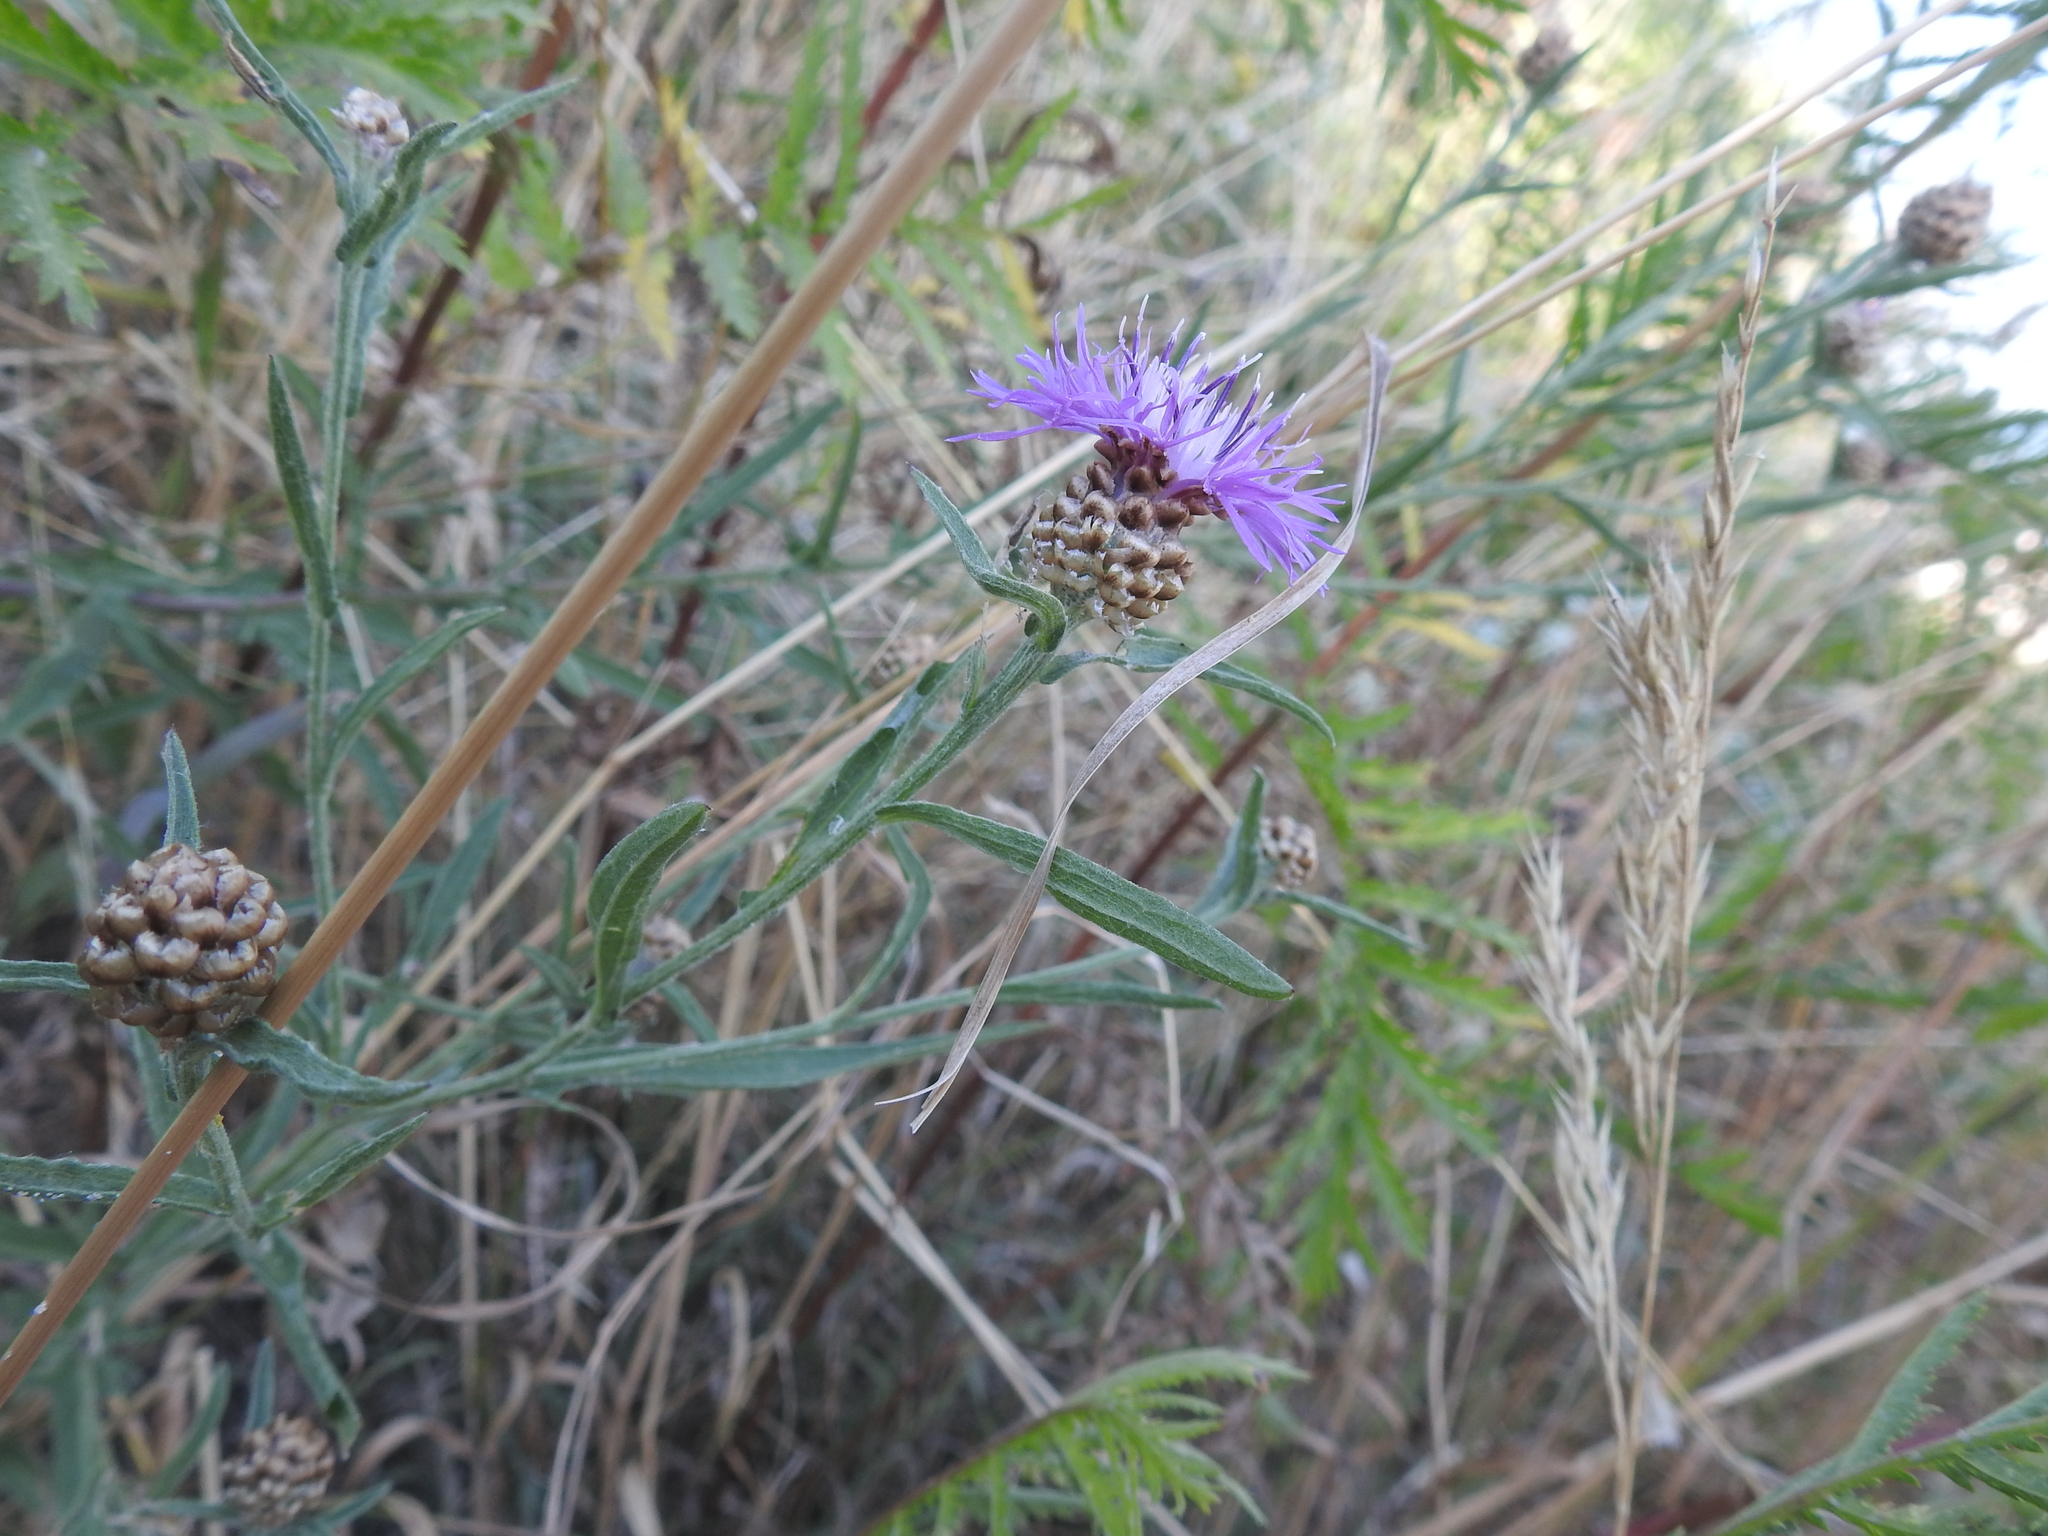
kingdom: Plantae
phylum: Tracheophyta
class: Magnoliopsida
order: Asterales
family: Asteraceae
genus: Centaurea
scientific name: Centaurea jacea
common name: Brown knapweed
